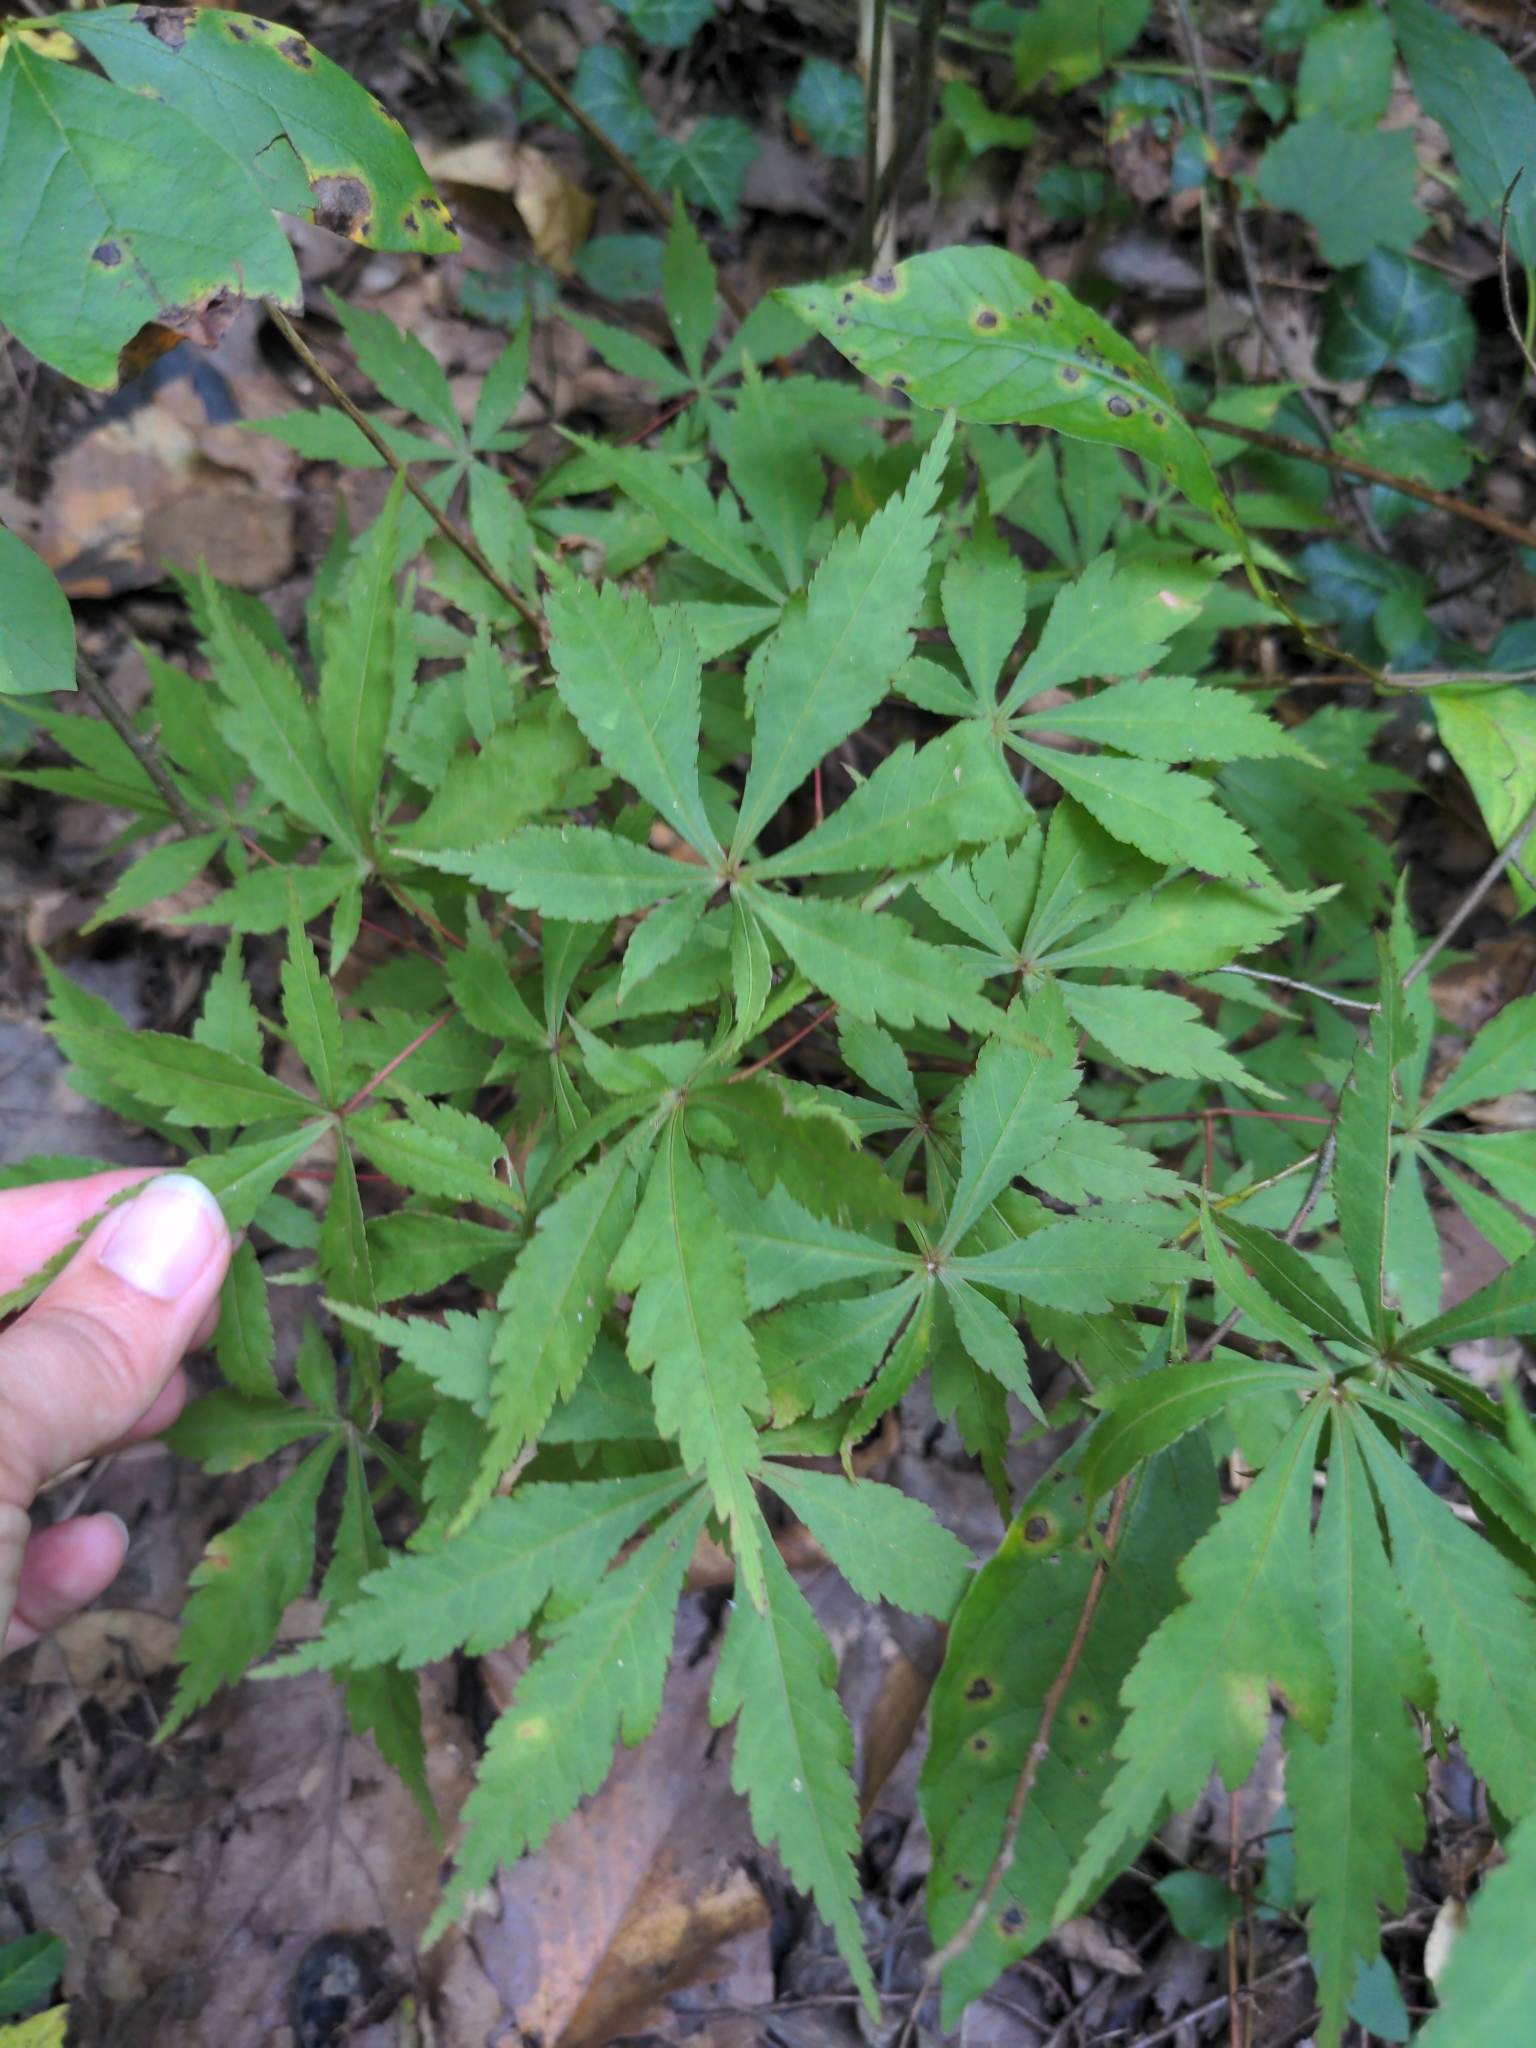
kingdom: Plantae
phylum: Tracheophyta
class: Magnoliopsida
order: Sapindales
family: Sapindaceae
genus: Acer
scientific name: Acer palmatum
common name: Japanese maple
